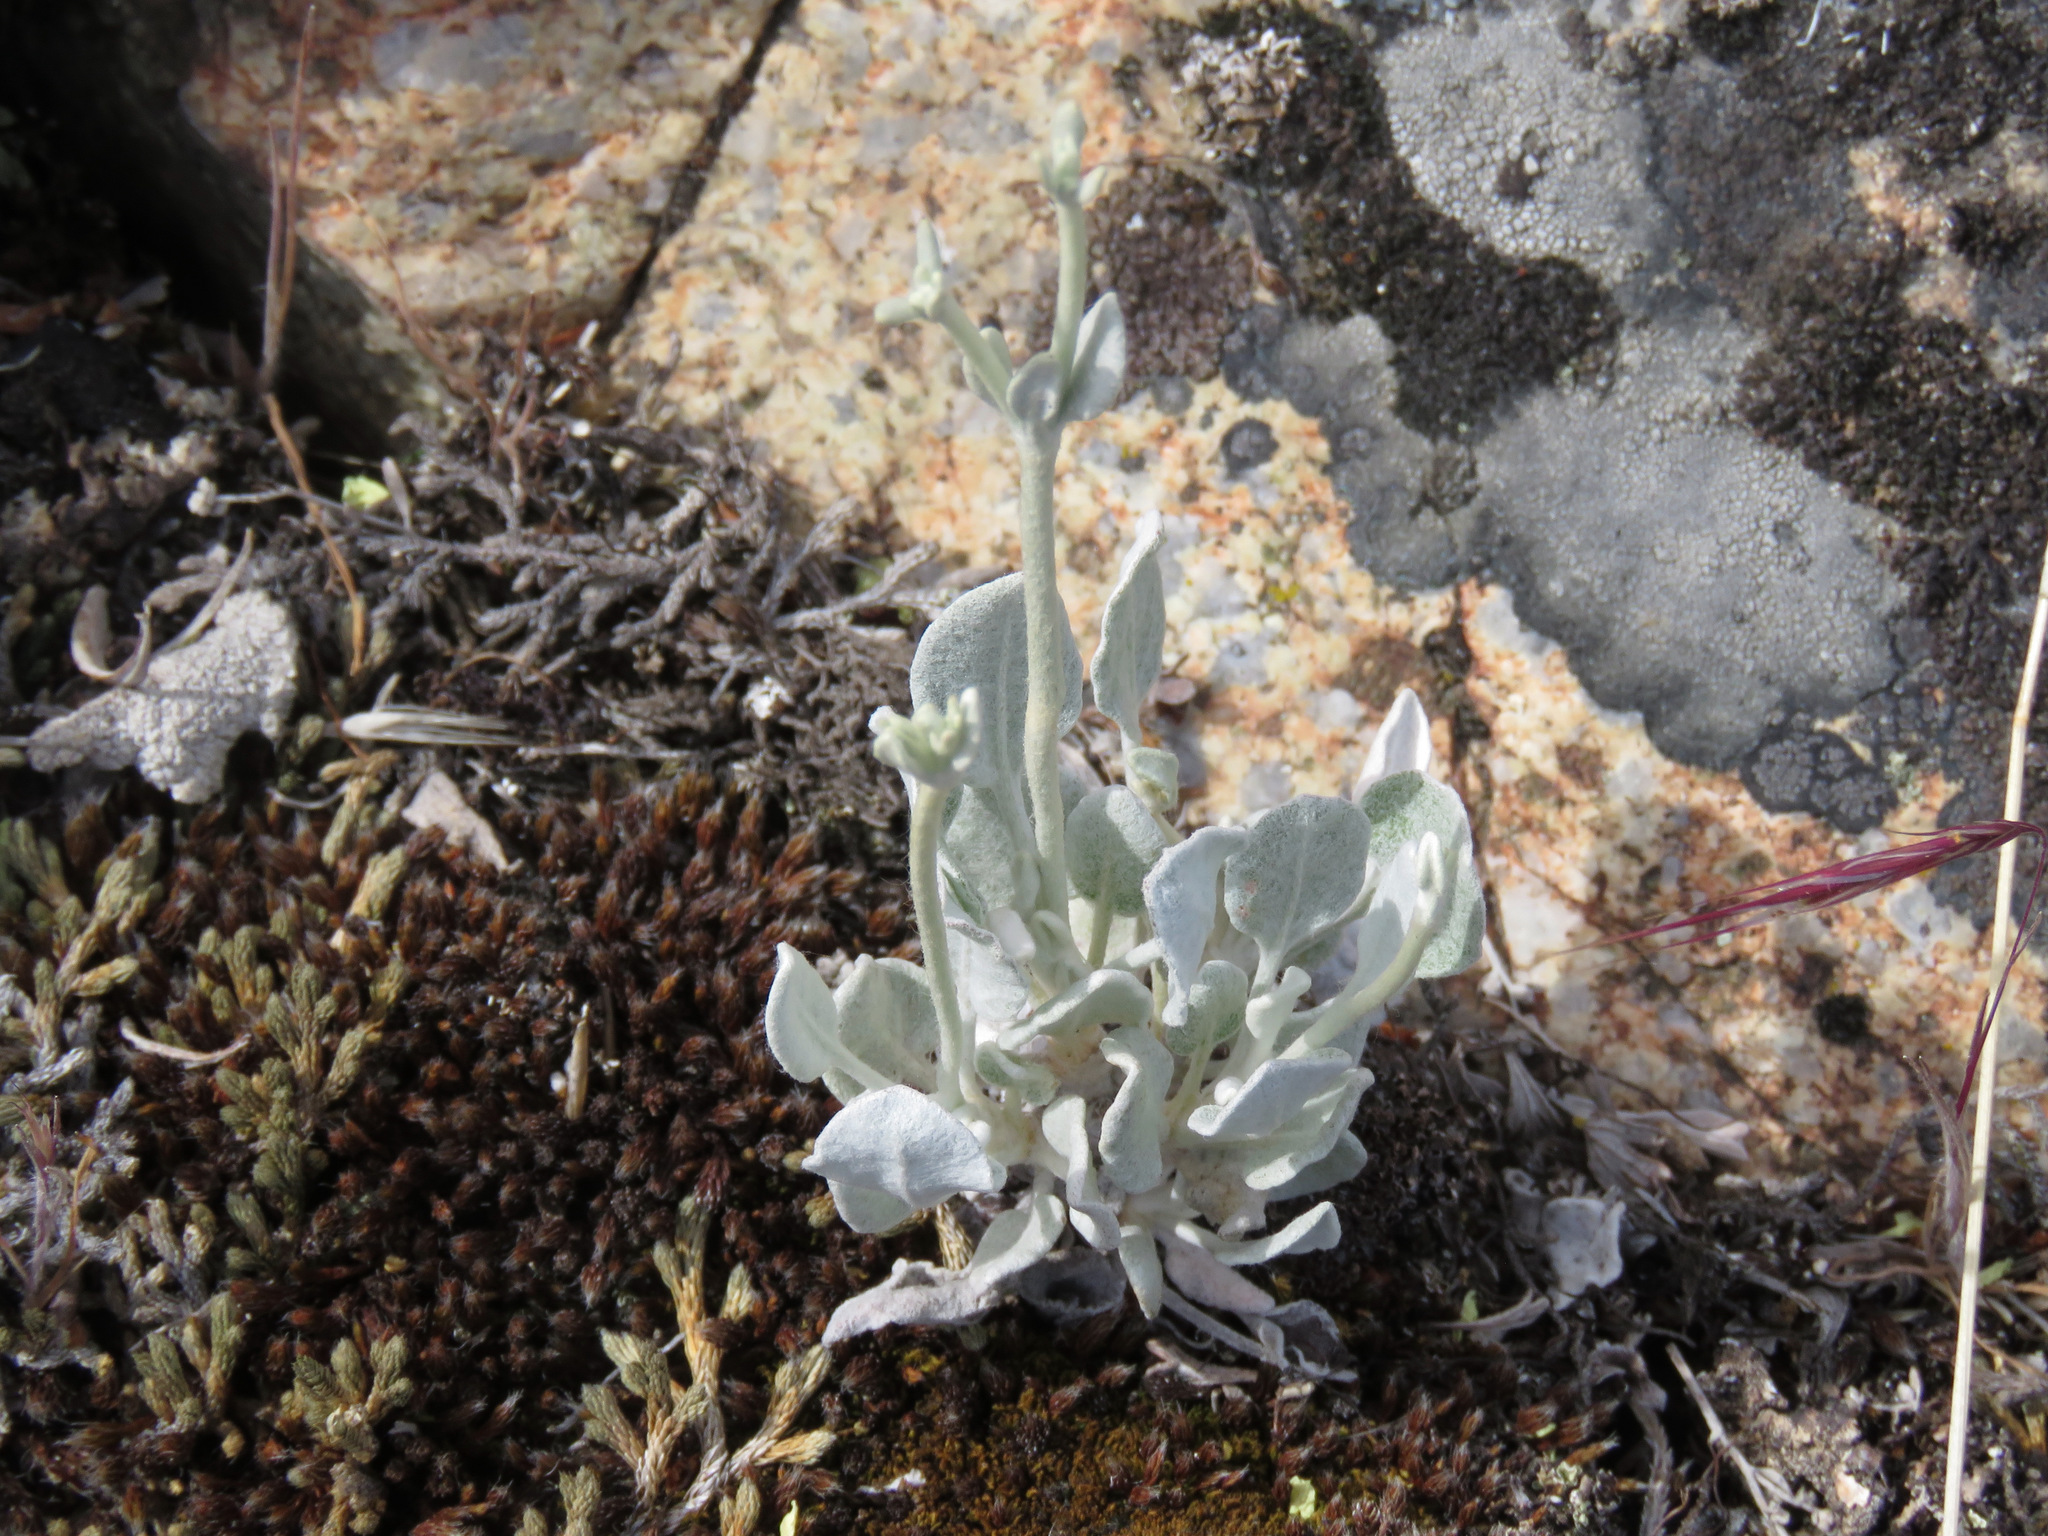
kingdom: Plantae
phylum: Tracheophyta
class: Magnoliopsida
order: Caryophyllales
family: Polygonaceae
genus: Eriogonum
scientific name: Eriogonum niveum
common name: Snow wild buckwheat
